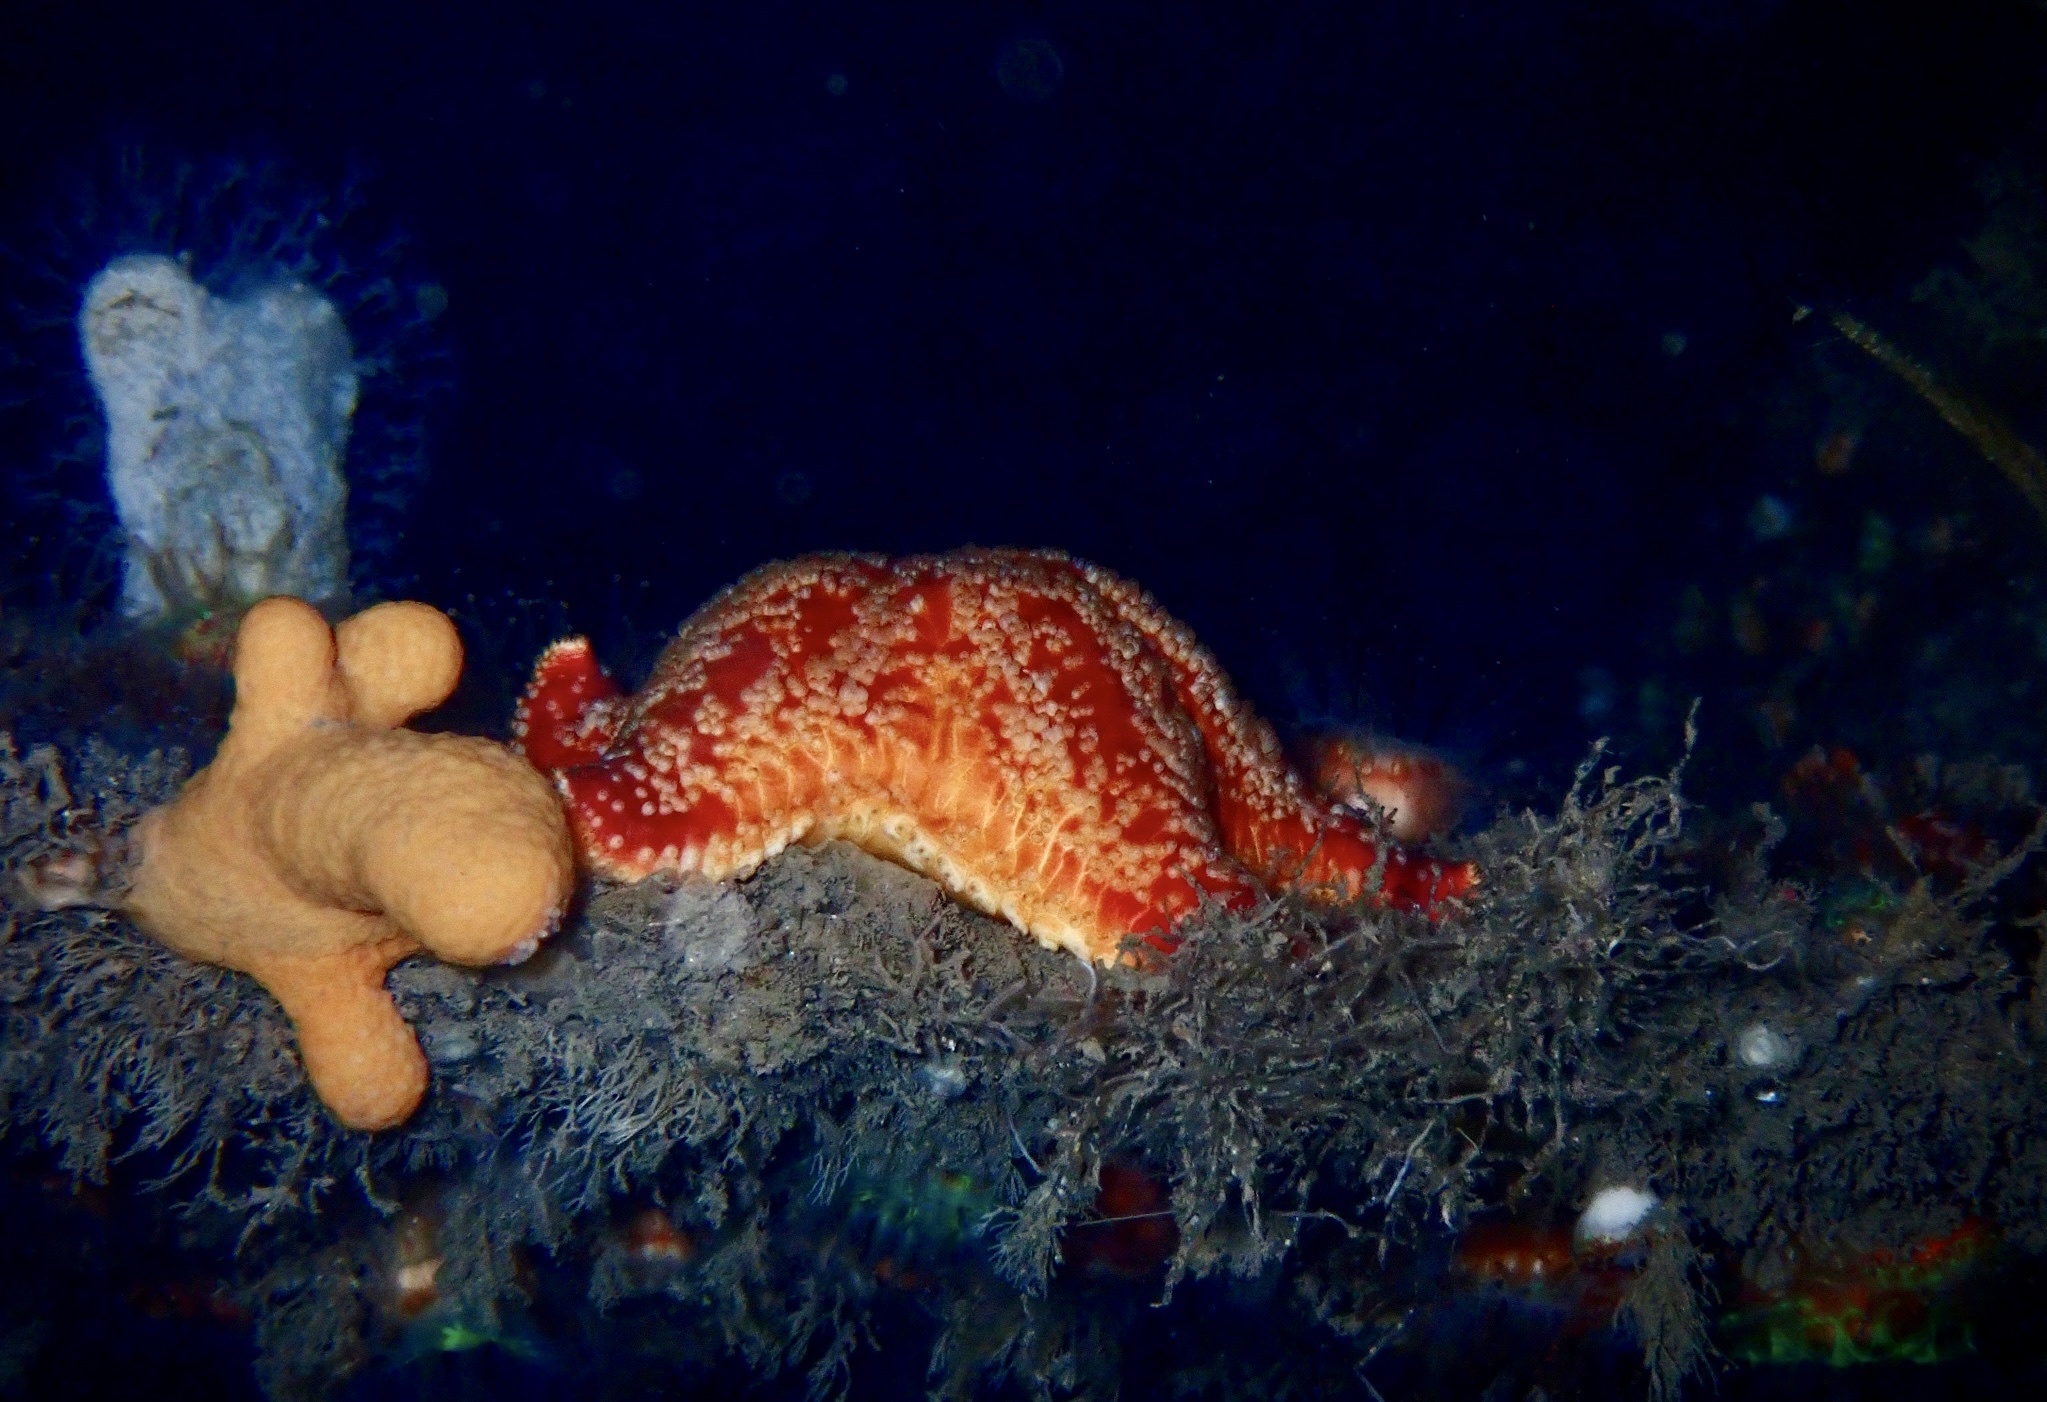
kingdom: Animalia
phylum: Echinodermata
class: Asteroidea
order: Valvatida
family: Poraniidae
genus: Porania
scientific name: Porania pulvillus
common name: Red cushion stat
